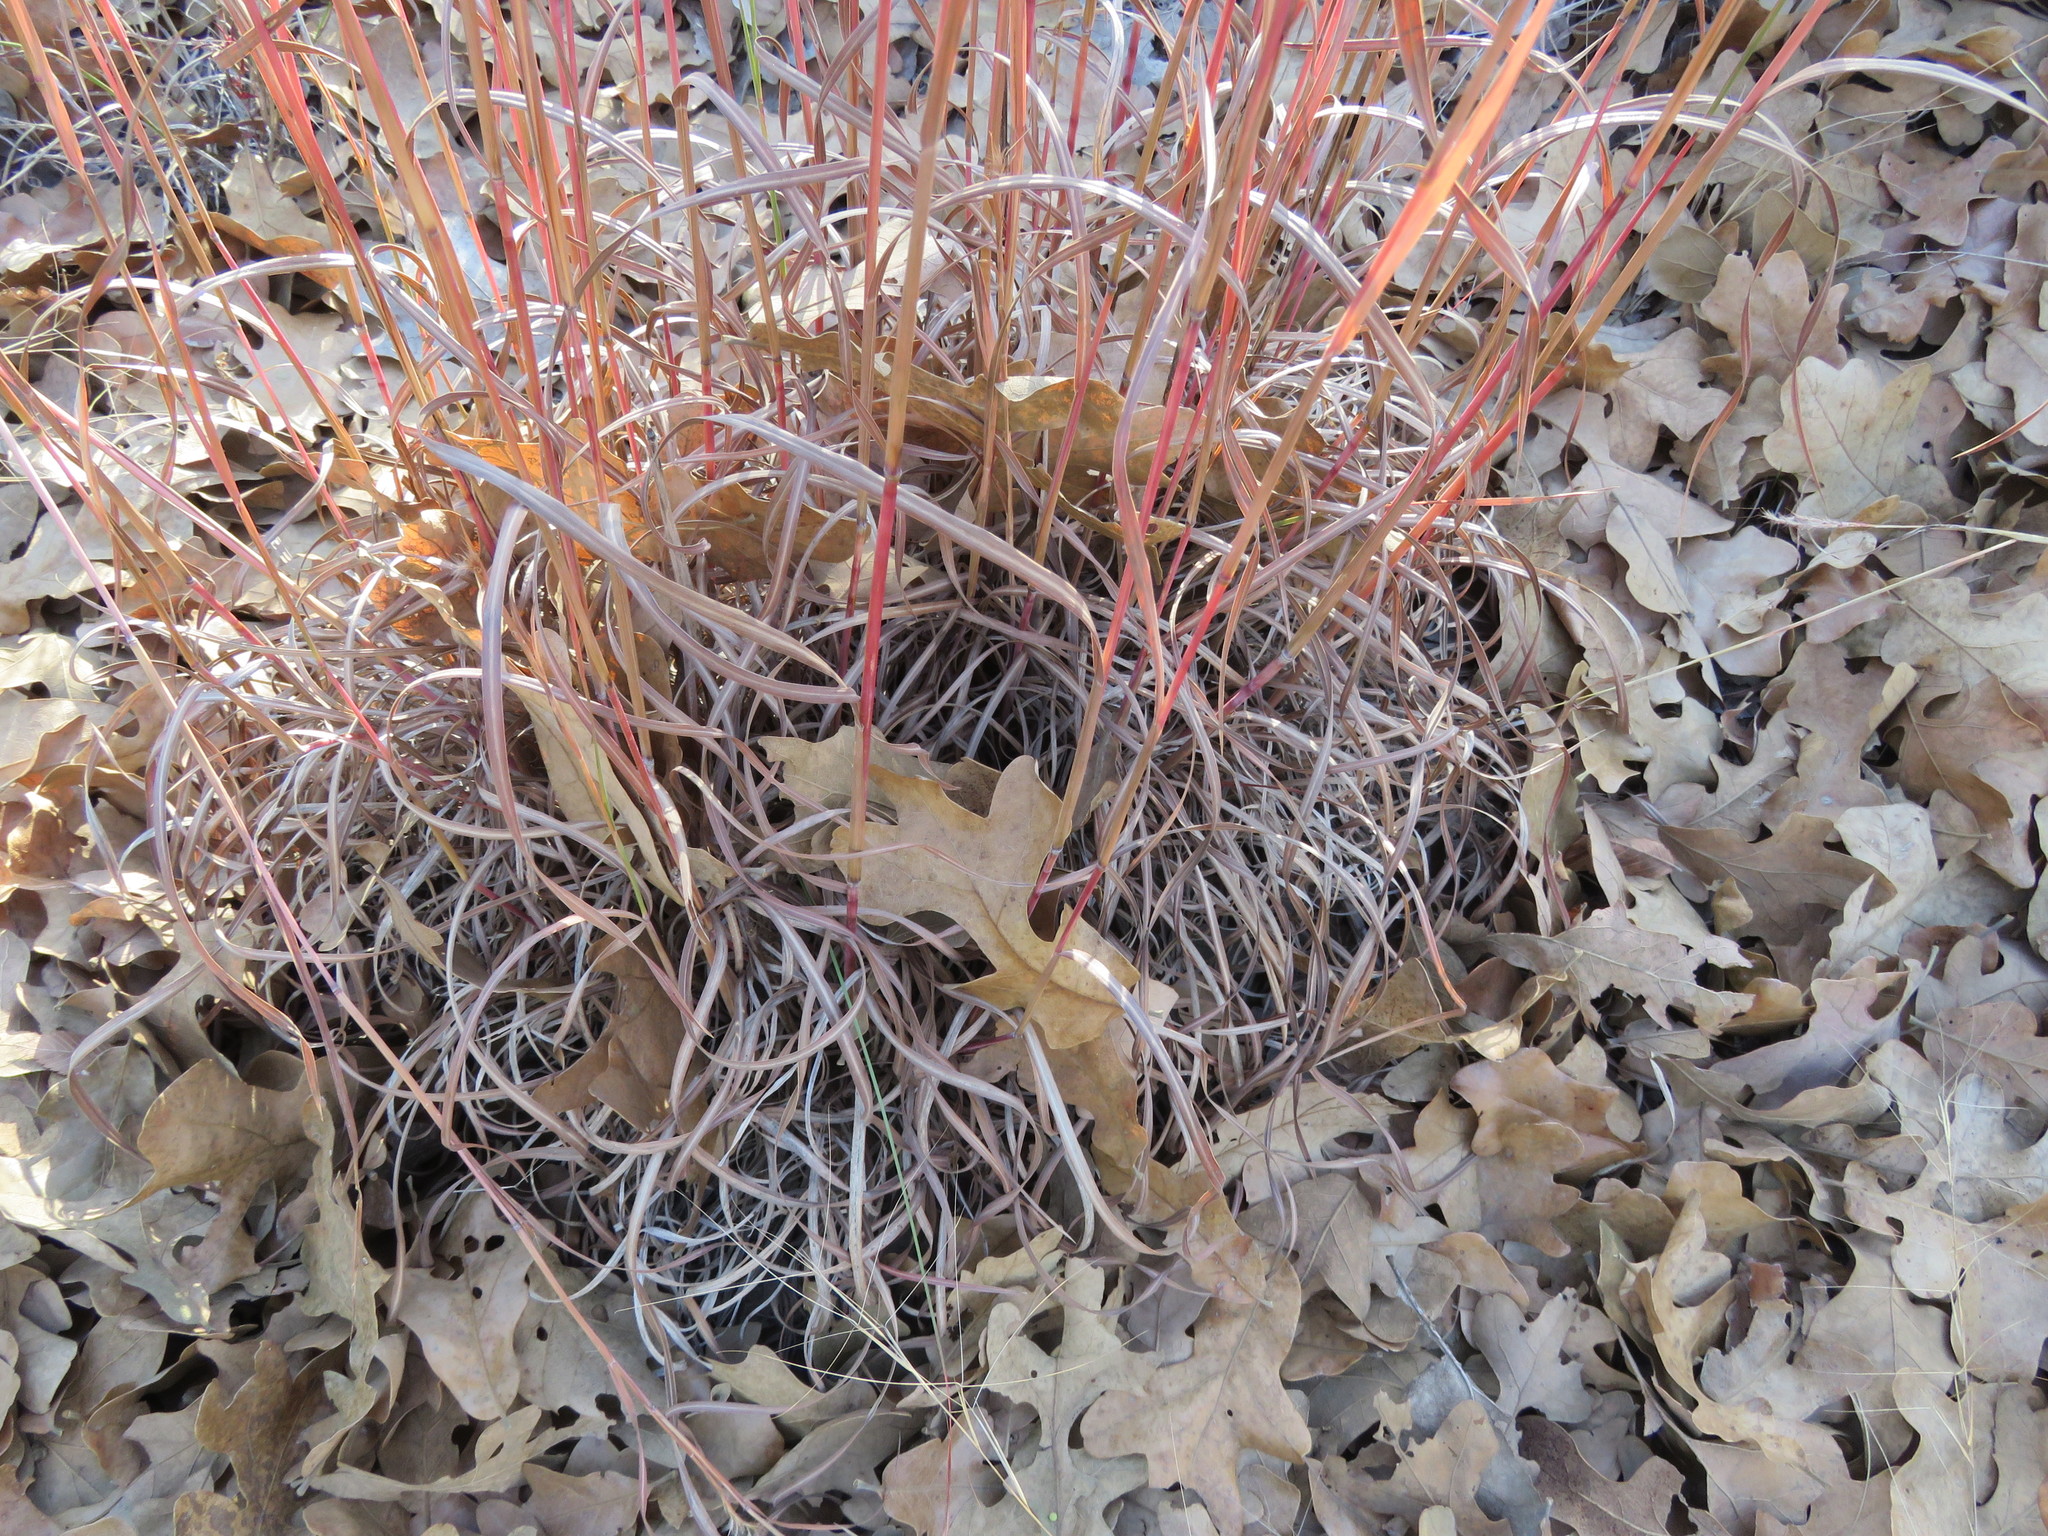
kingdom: Plantae
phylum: Tracheophyta
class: Liliopsida
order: Poales
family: Poaceae
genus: Schizachyrium
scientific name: Schizachyrium scoparium
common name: Little bluestem
